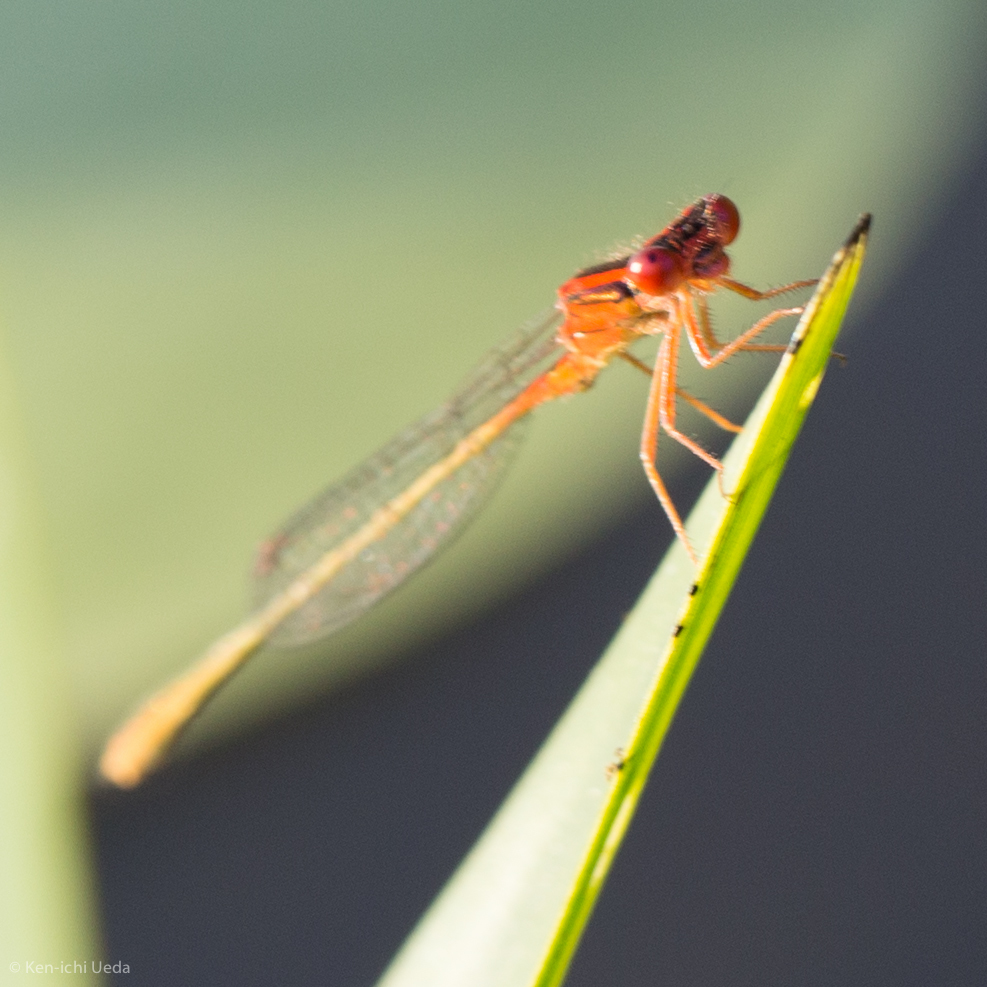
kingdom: Animalia
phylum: Arthropoda
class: Insecta
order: Odonata
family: Coenagrionidae
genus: Enallagma
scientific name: Enallagma pictum
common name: Scarlet bluet
